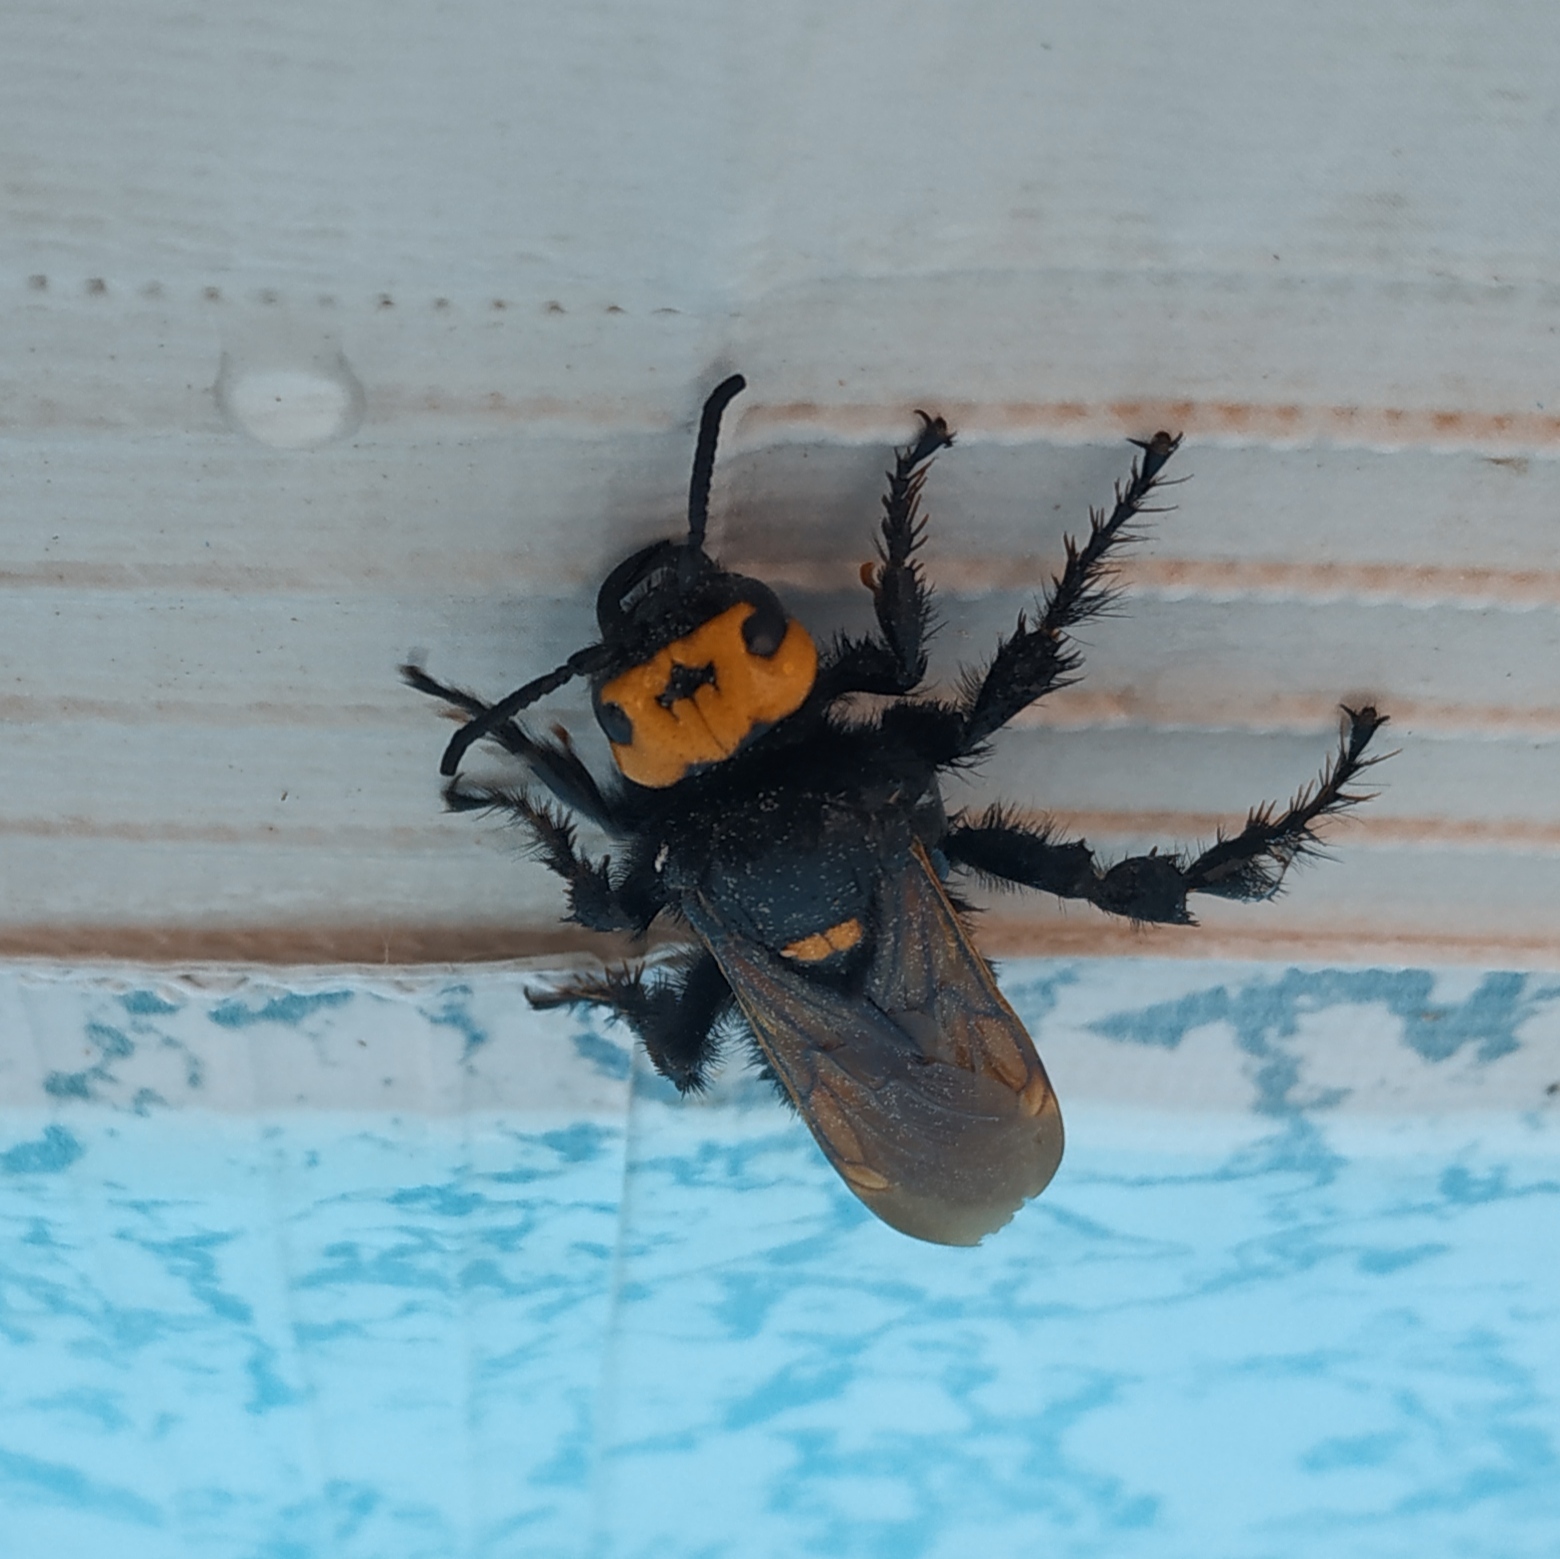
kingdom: Animalia
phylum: Arthropoda
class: Insecta
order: Hymenoptera
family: Scoliidae
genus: Megascolia
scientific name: Megascolia maculata
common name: Mammoth wasp
